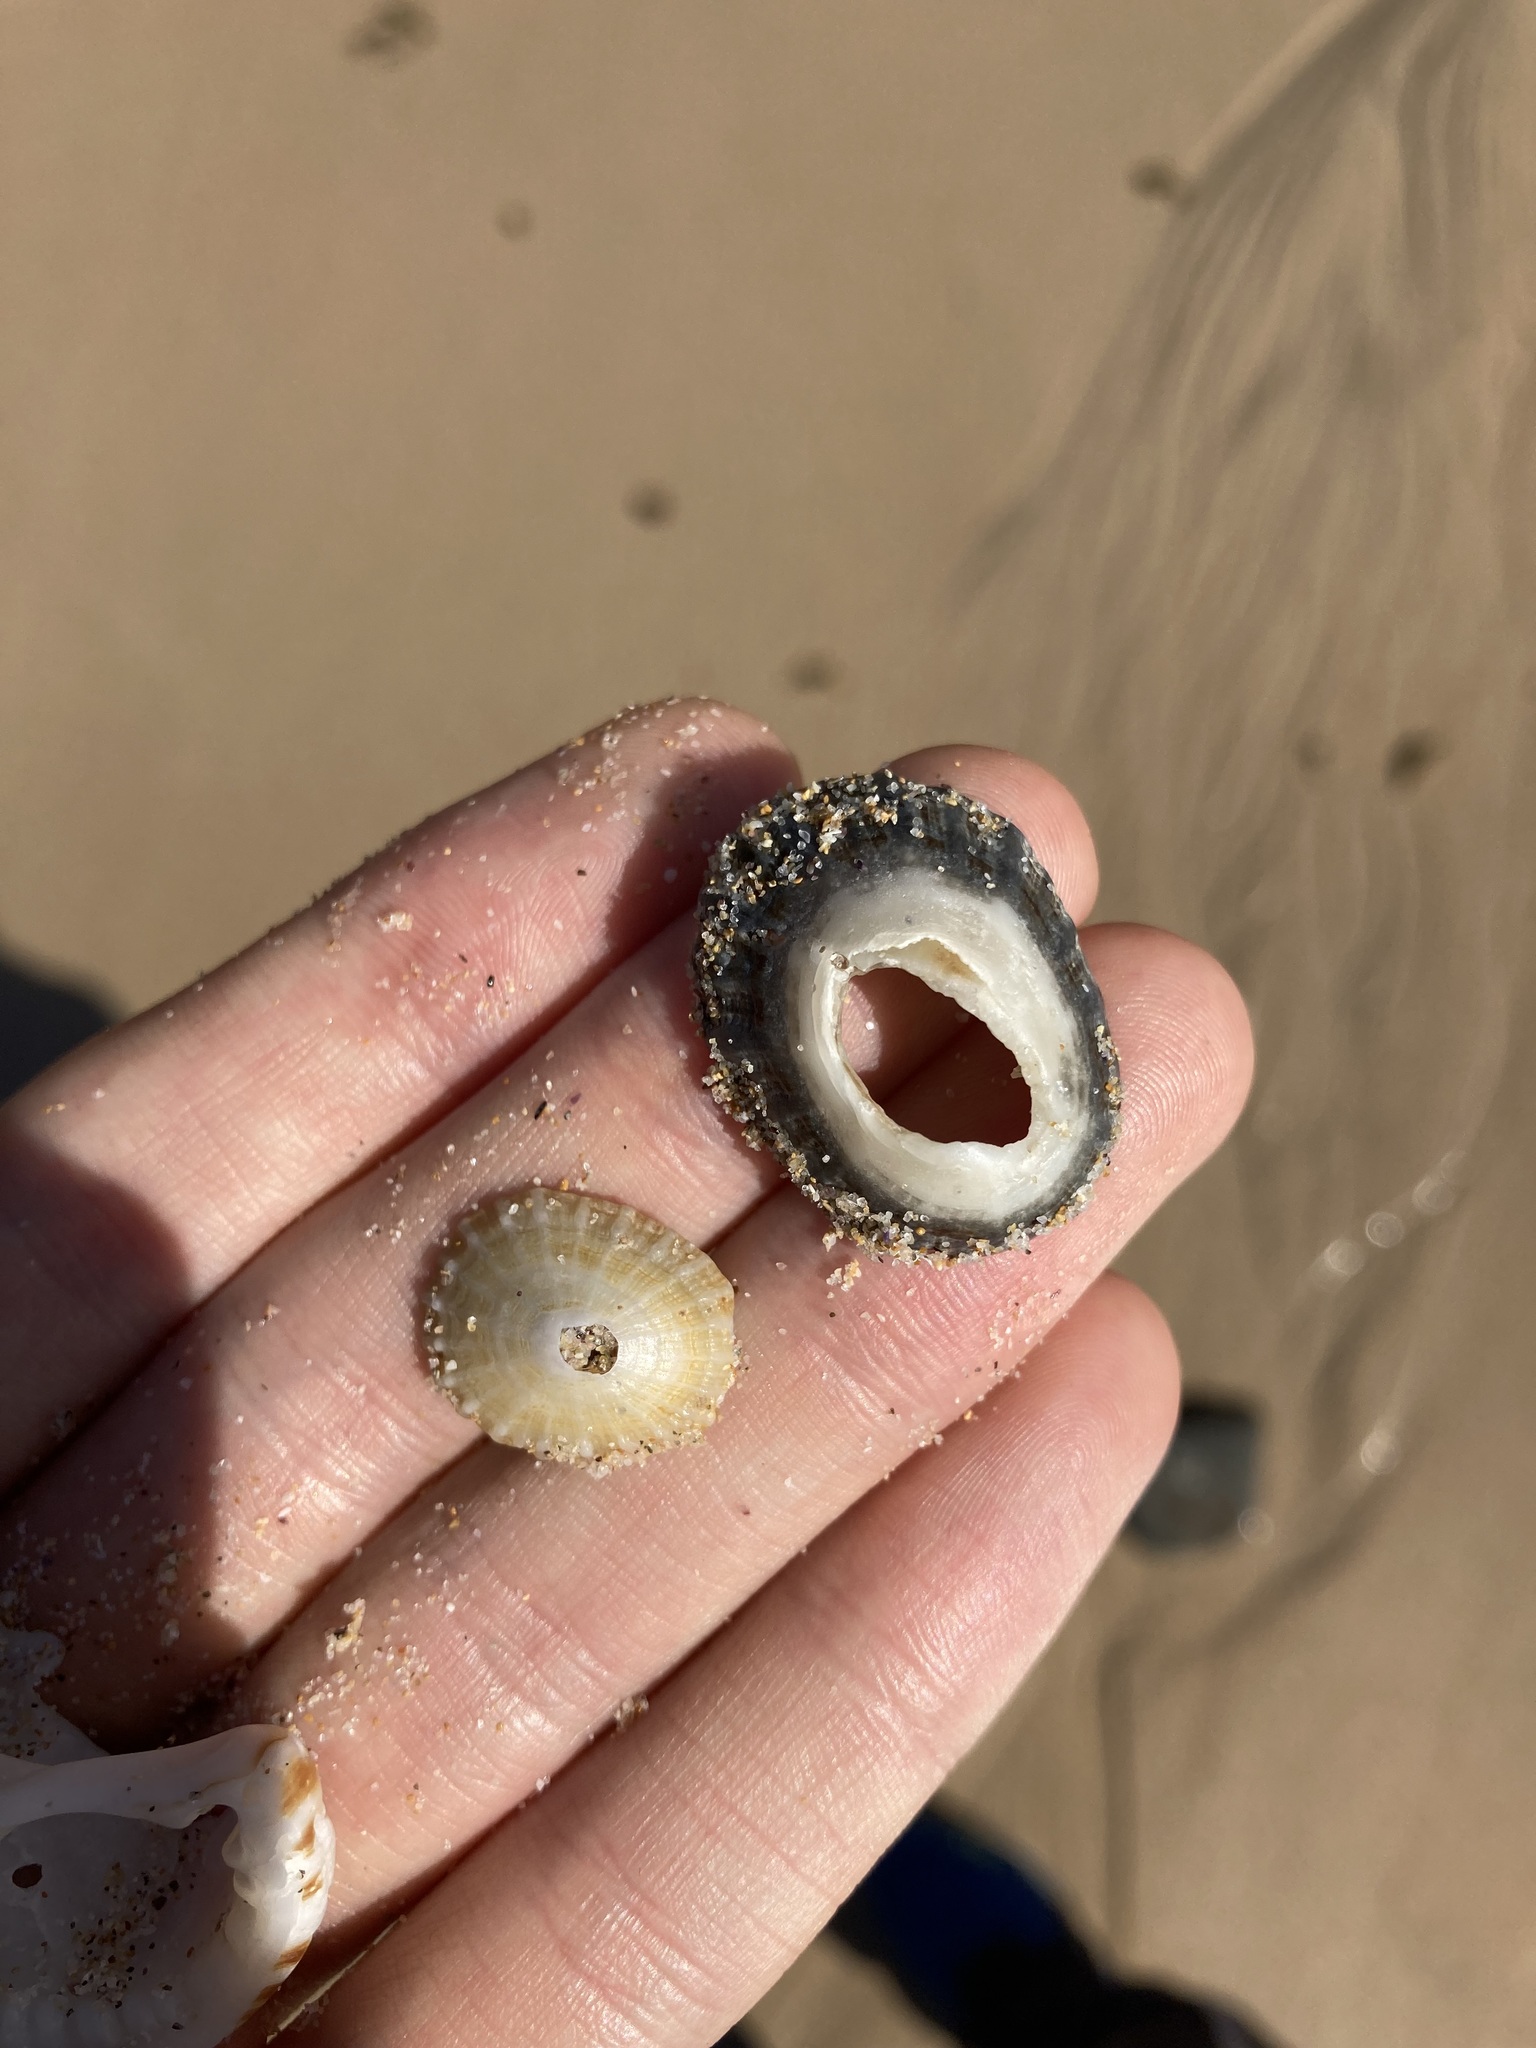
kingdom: Animalia
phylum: Mollusca
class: Gastropoda
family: Patellidae
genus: Scutellastra
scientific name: Scutellastra peronii
